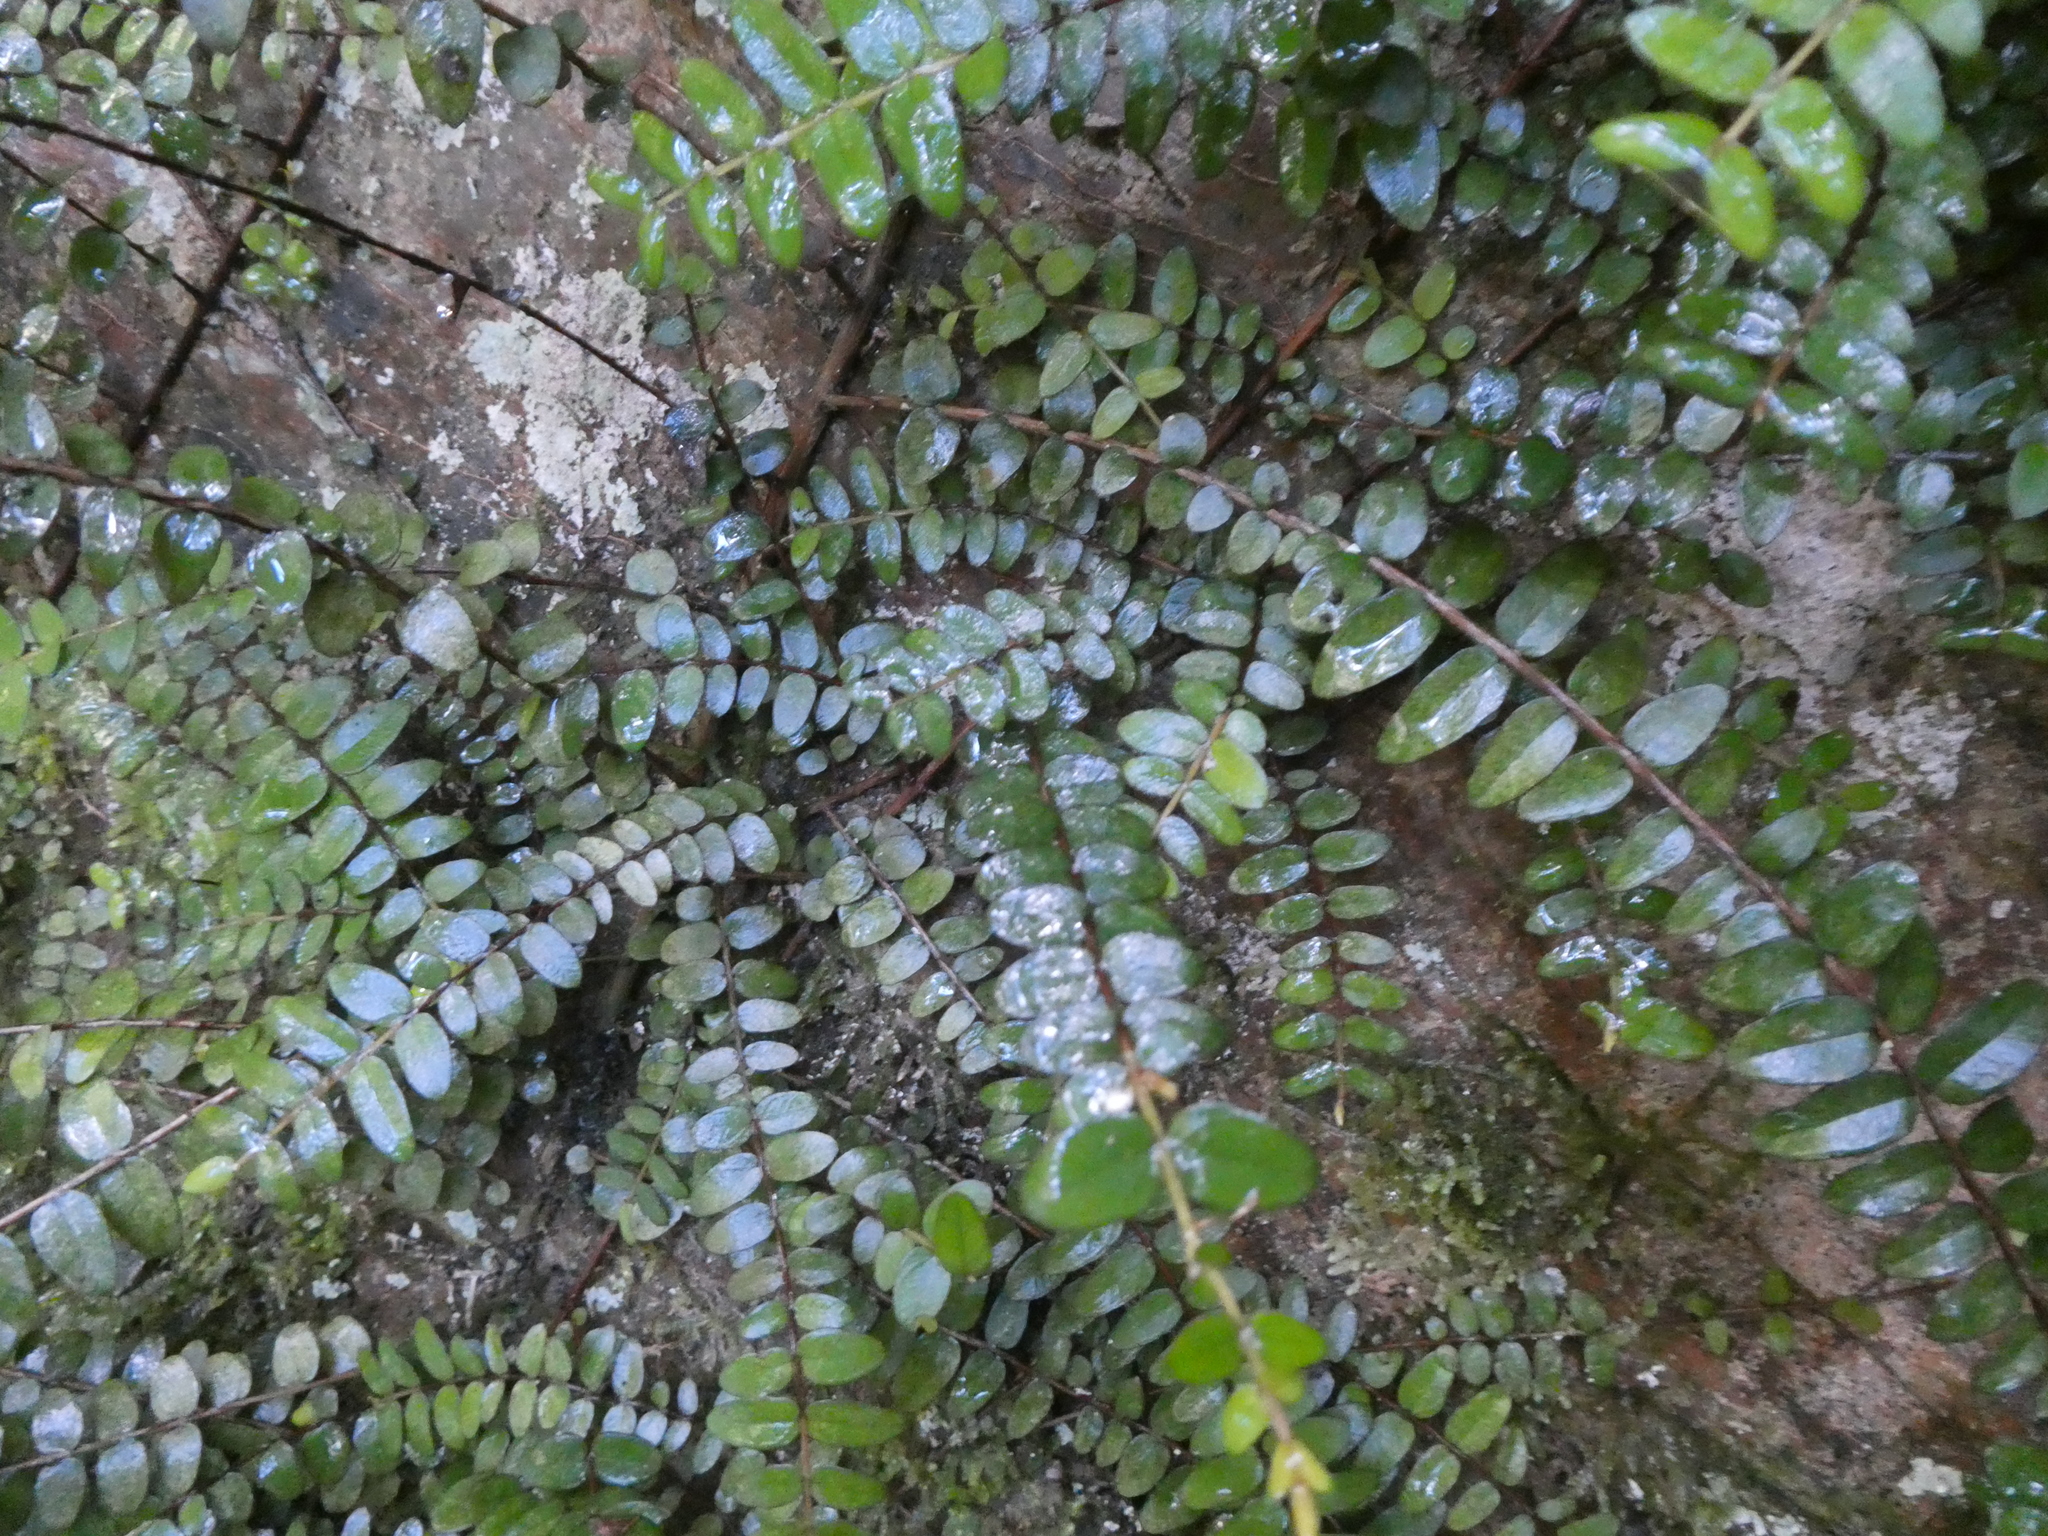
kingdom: Plantae
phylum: Tracheophyta
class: Magnoliopsida
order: Myrtales
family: Myrtaceae
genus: Metrosideros
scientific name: Metrosideros diffusa
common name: Small ratavine
